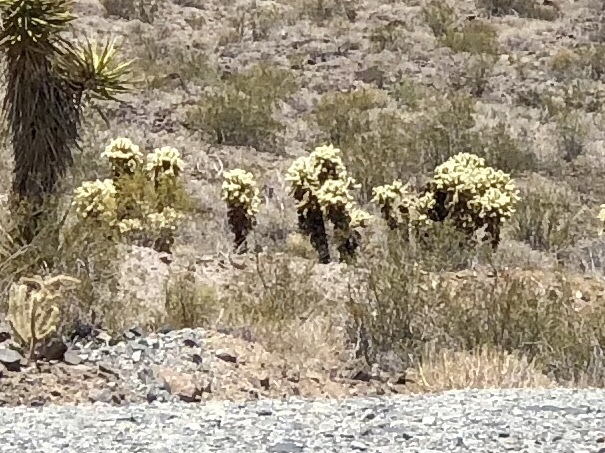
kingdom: Plantae
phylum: Tracheophyta
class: Magnoliopsida
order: Caryophyllales
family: Cactaceae
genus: Cylindropuntia
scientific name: Cylindropuntia fosbergii
